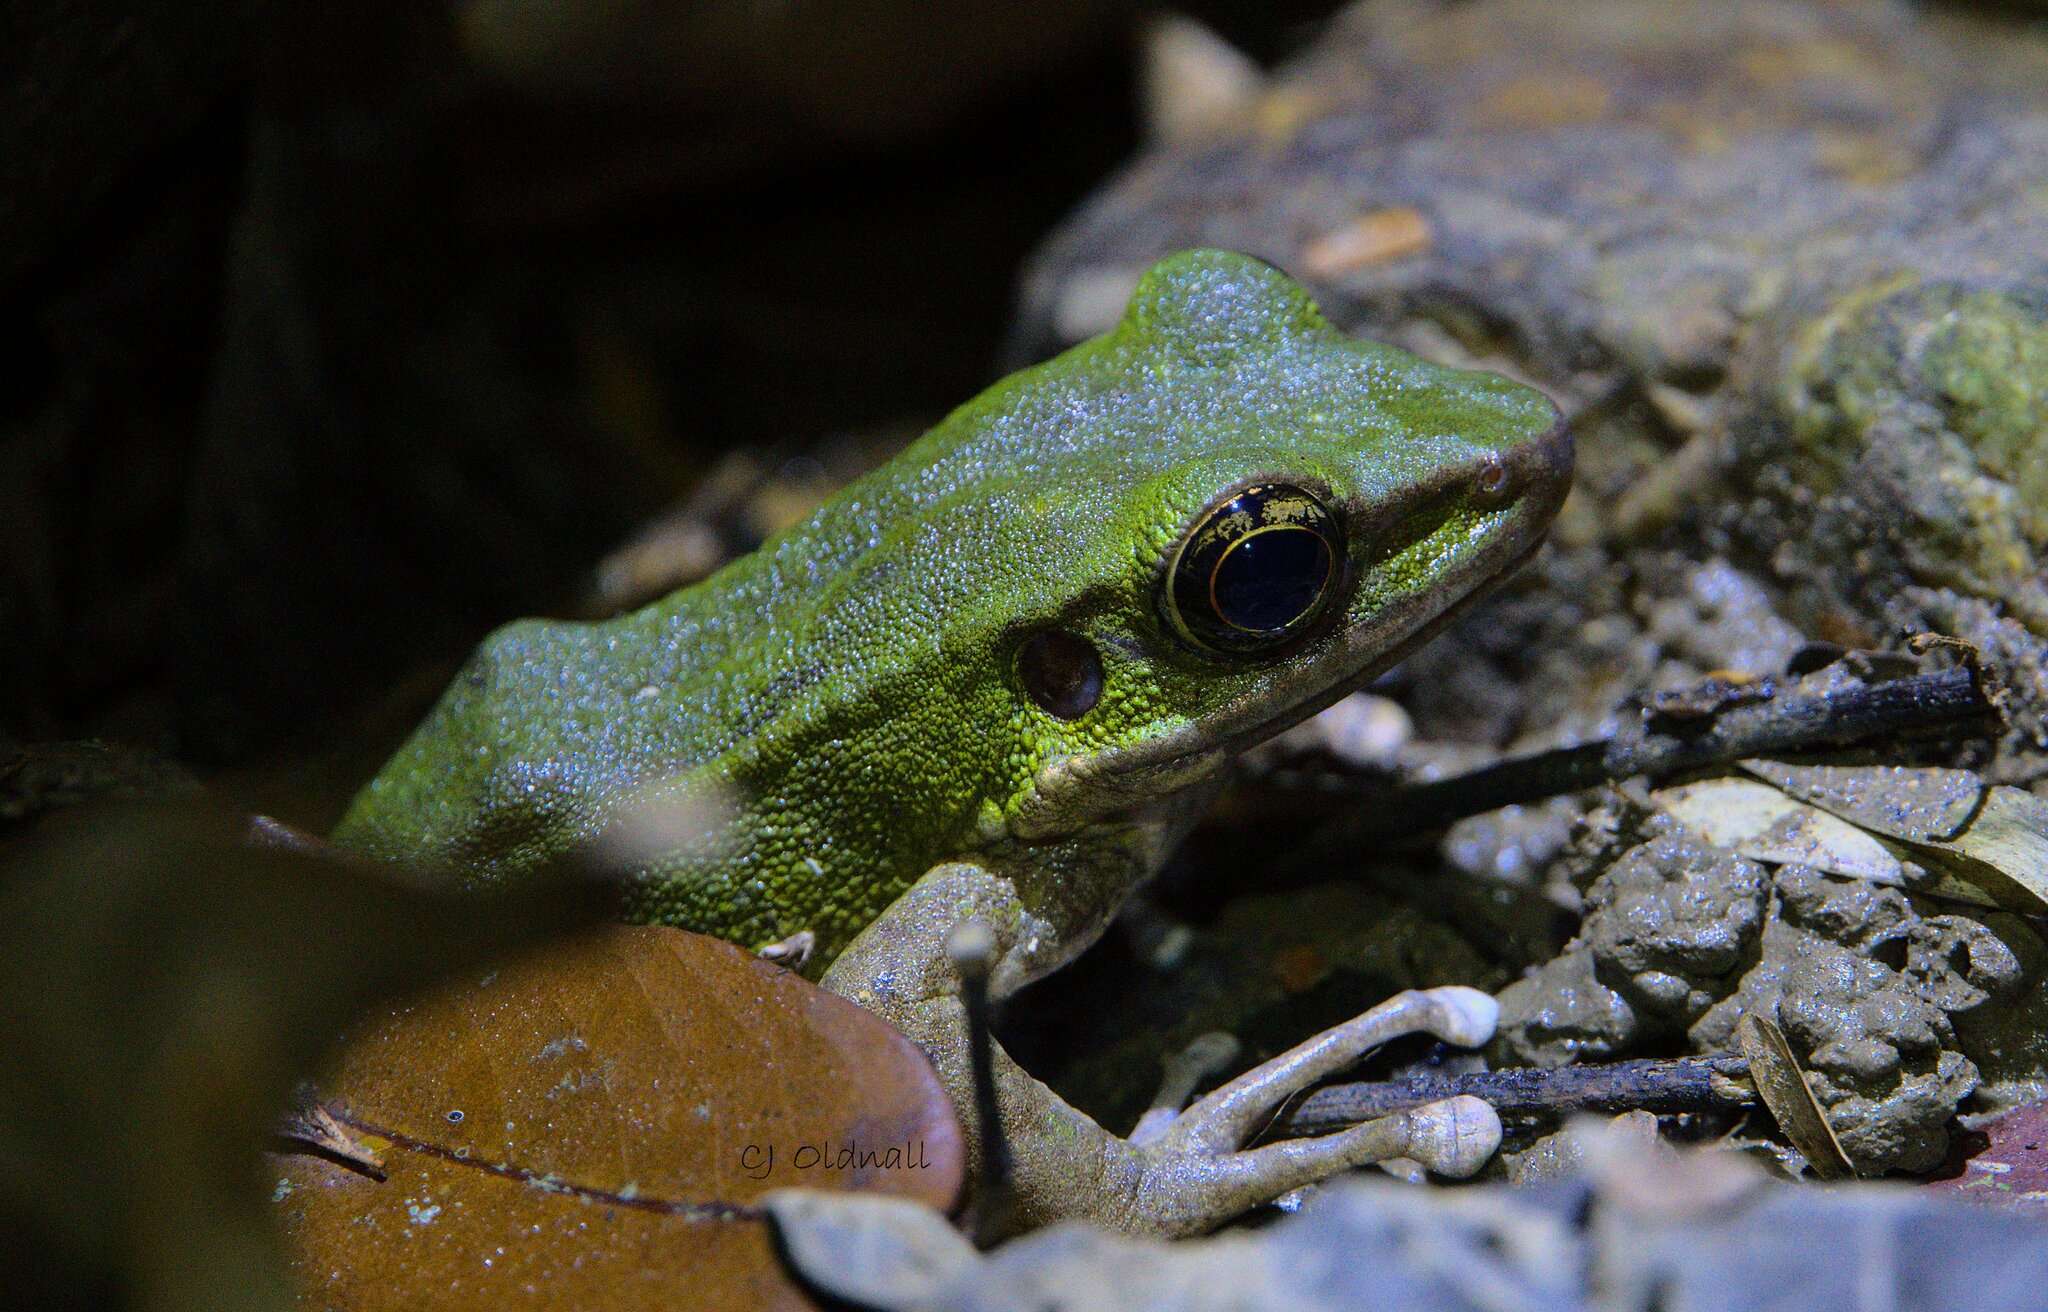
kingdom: Animalia
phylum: Chordata
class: Amphibia
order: Anura
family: Ranidae
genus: Odorrana
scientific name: Odorrana hosii
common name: Green tree frog
